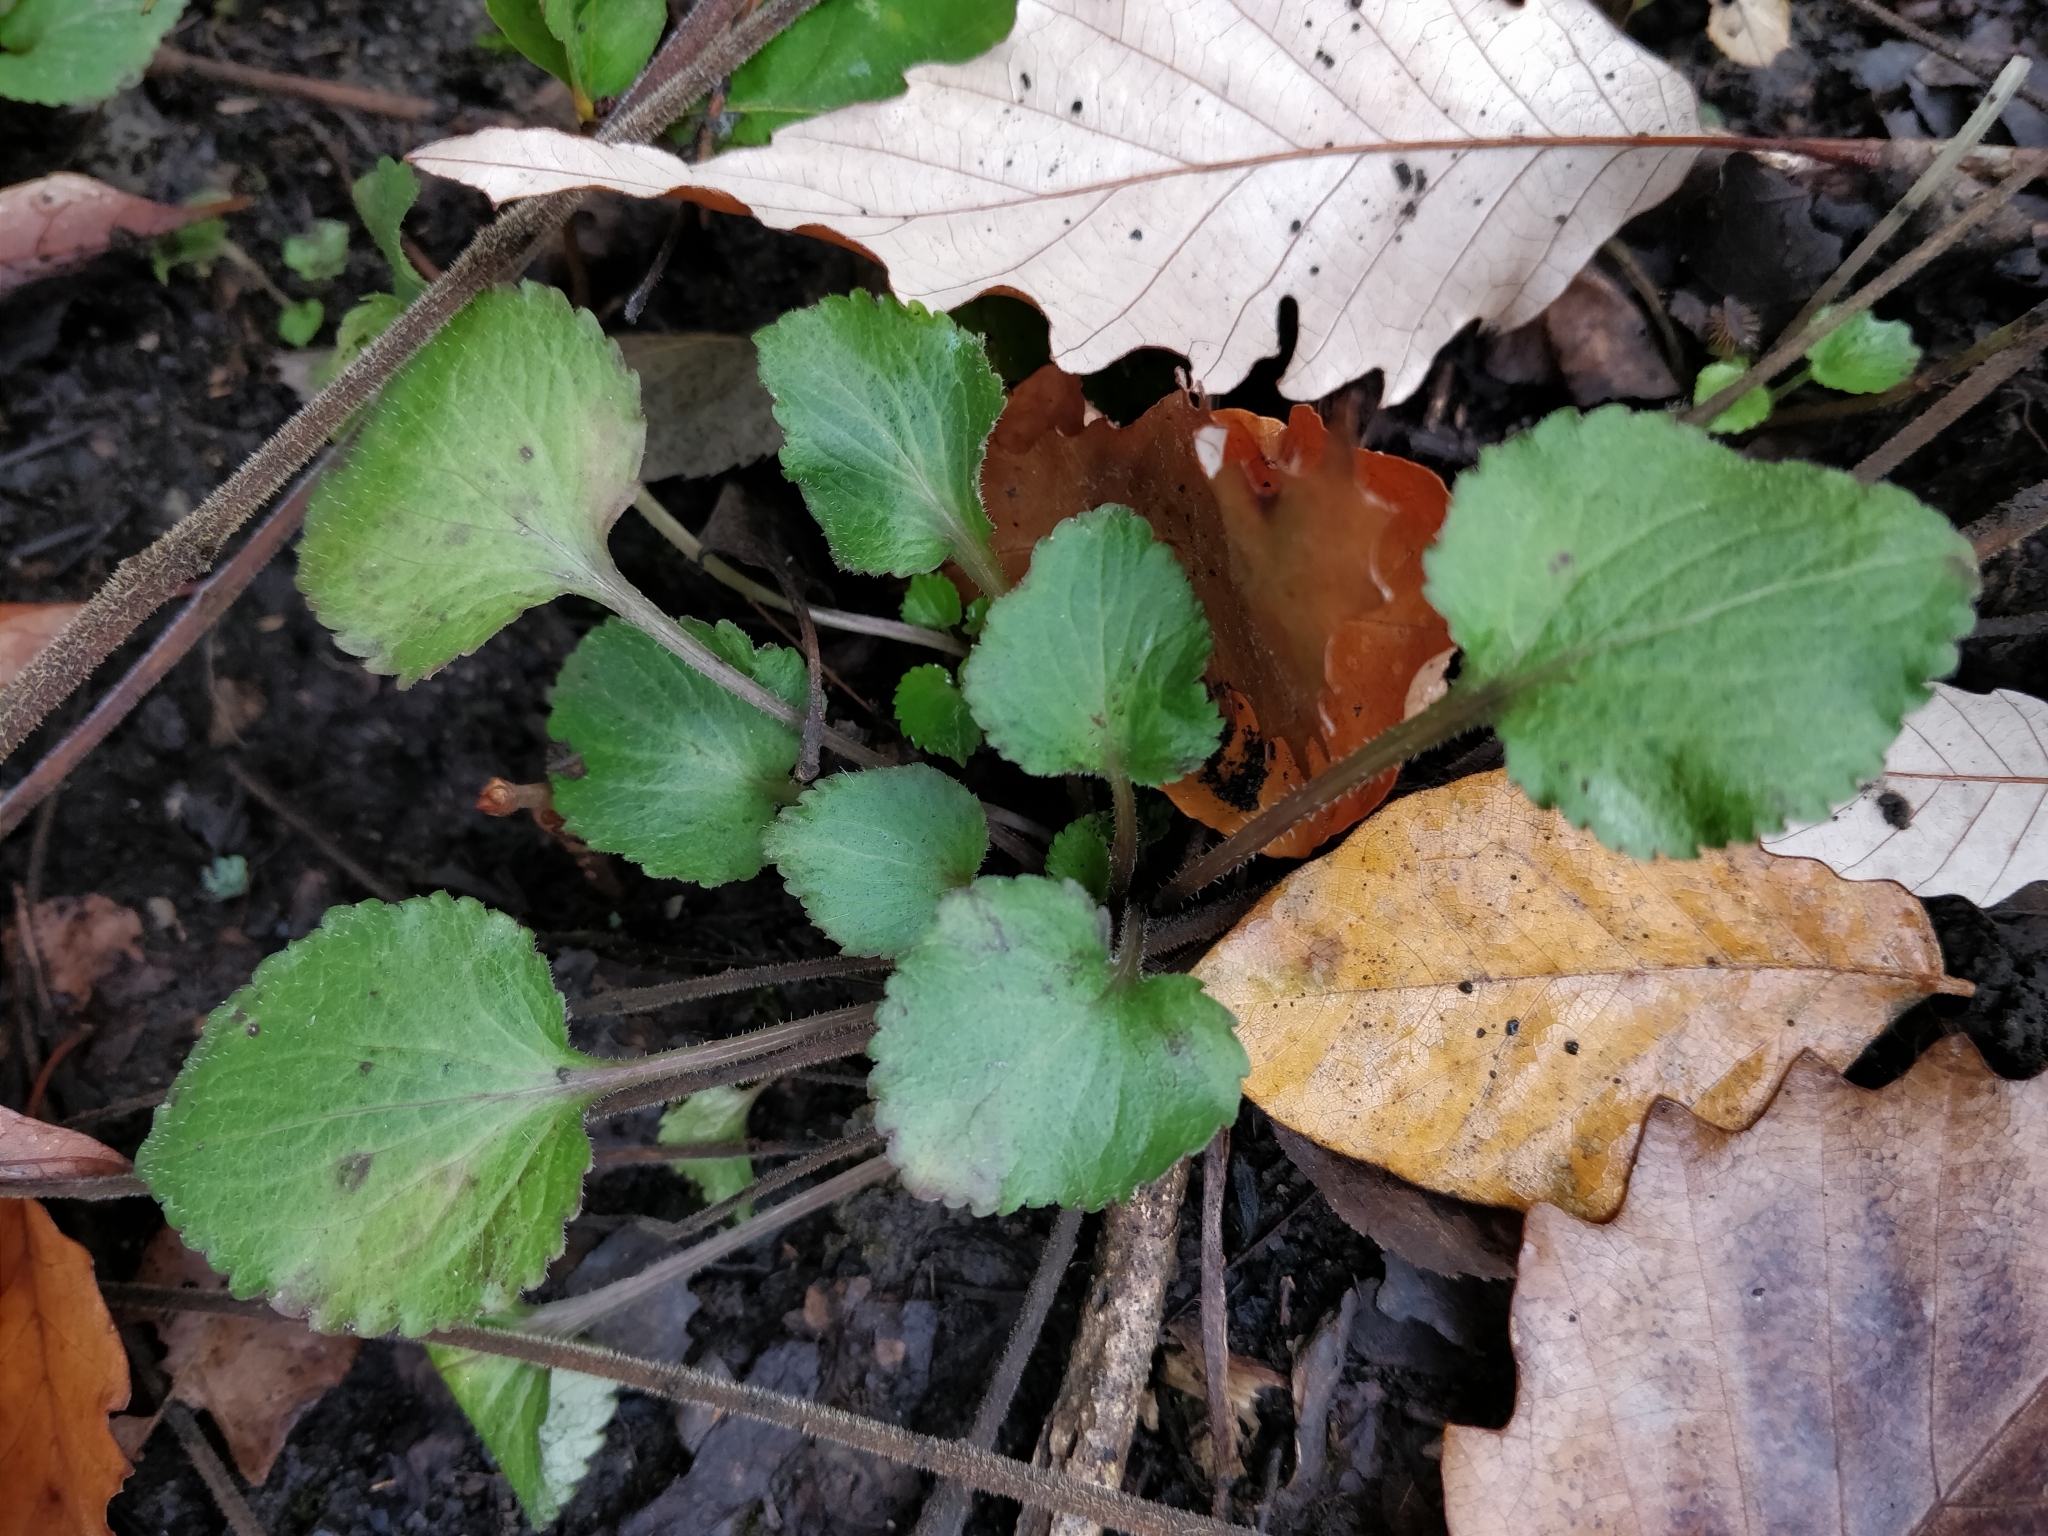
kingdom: Plantae
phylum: Tracheophyta
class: Magnoliopsida
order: Asterales
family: Campanulaceae
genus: Campanulastrum
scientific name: Campanulastrum americanum
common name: American bellflower
